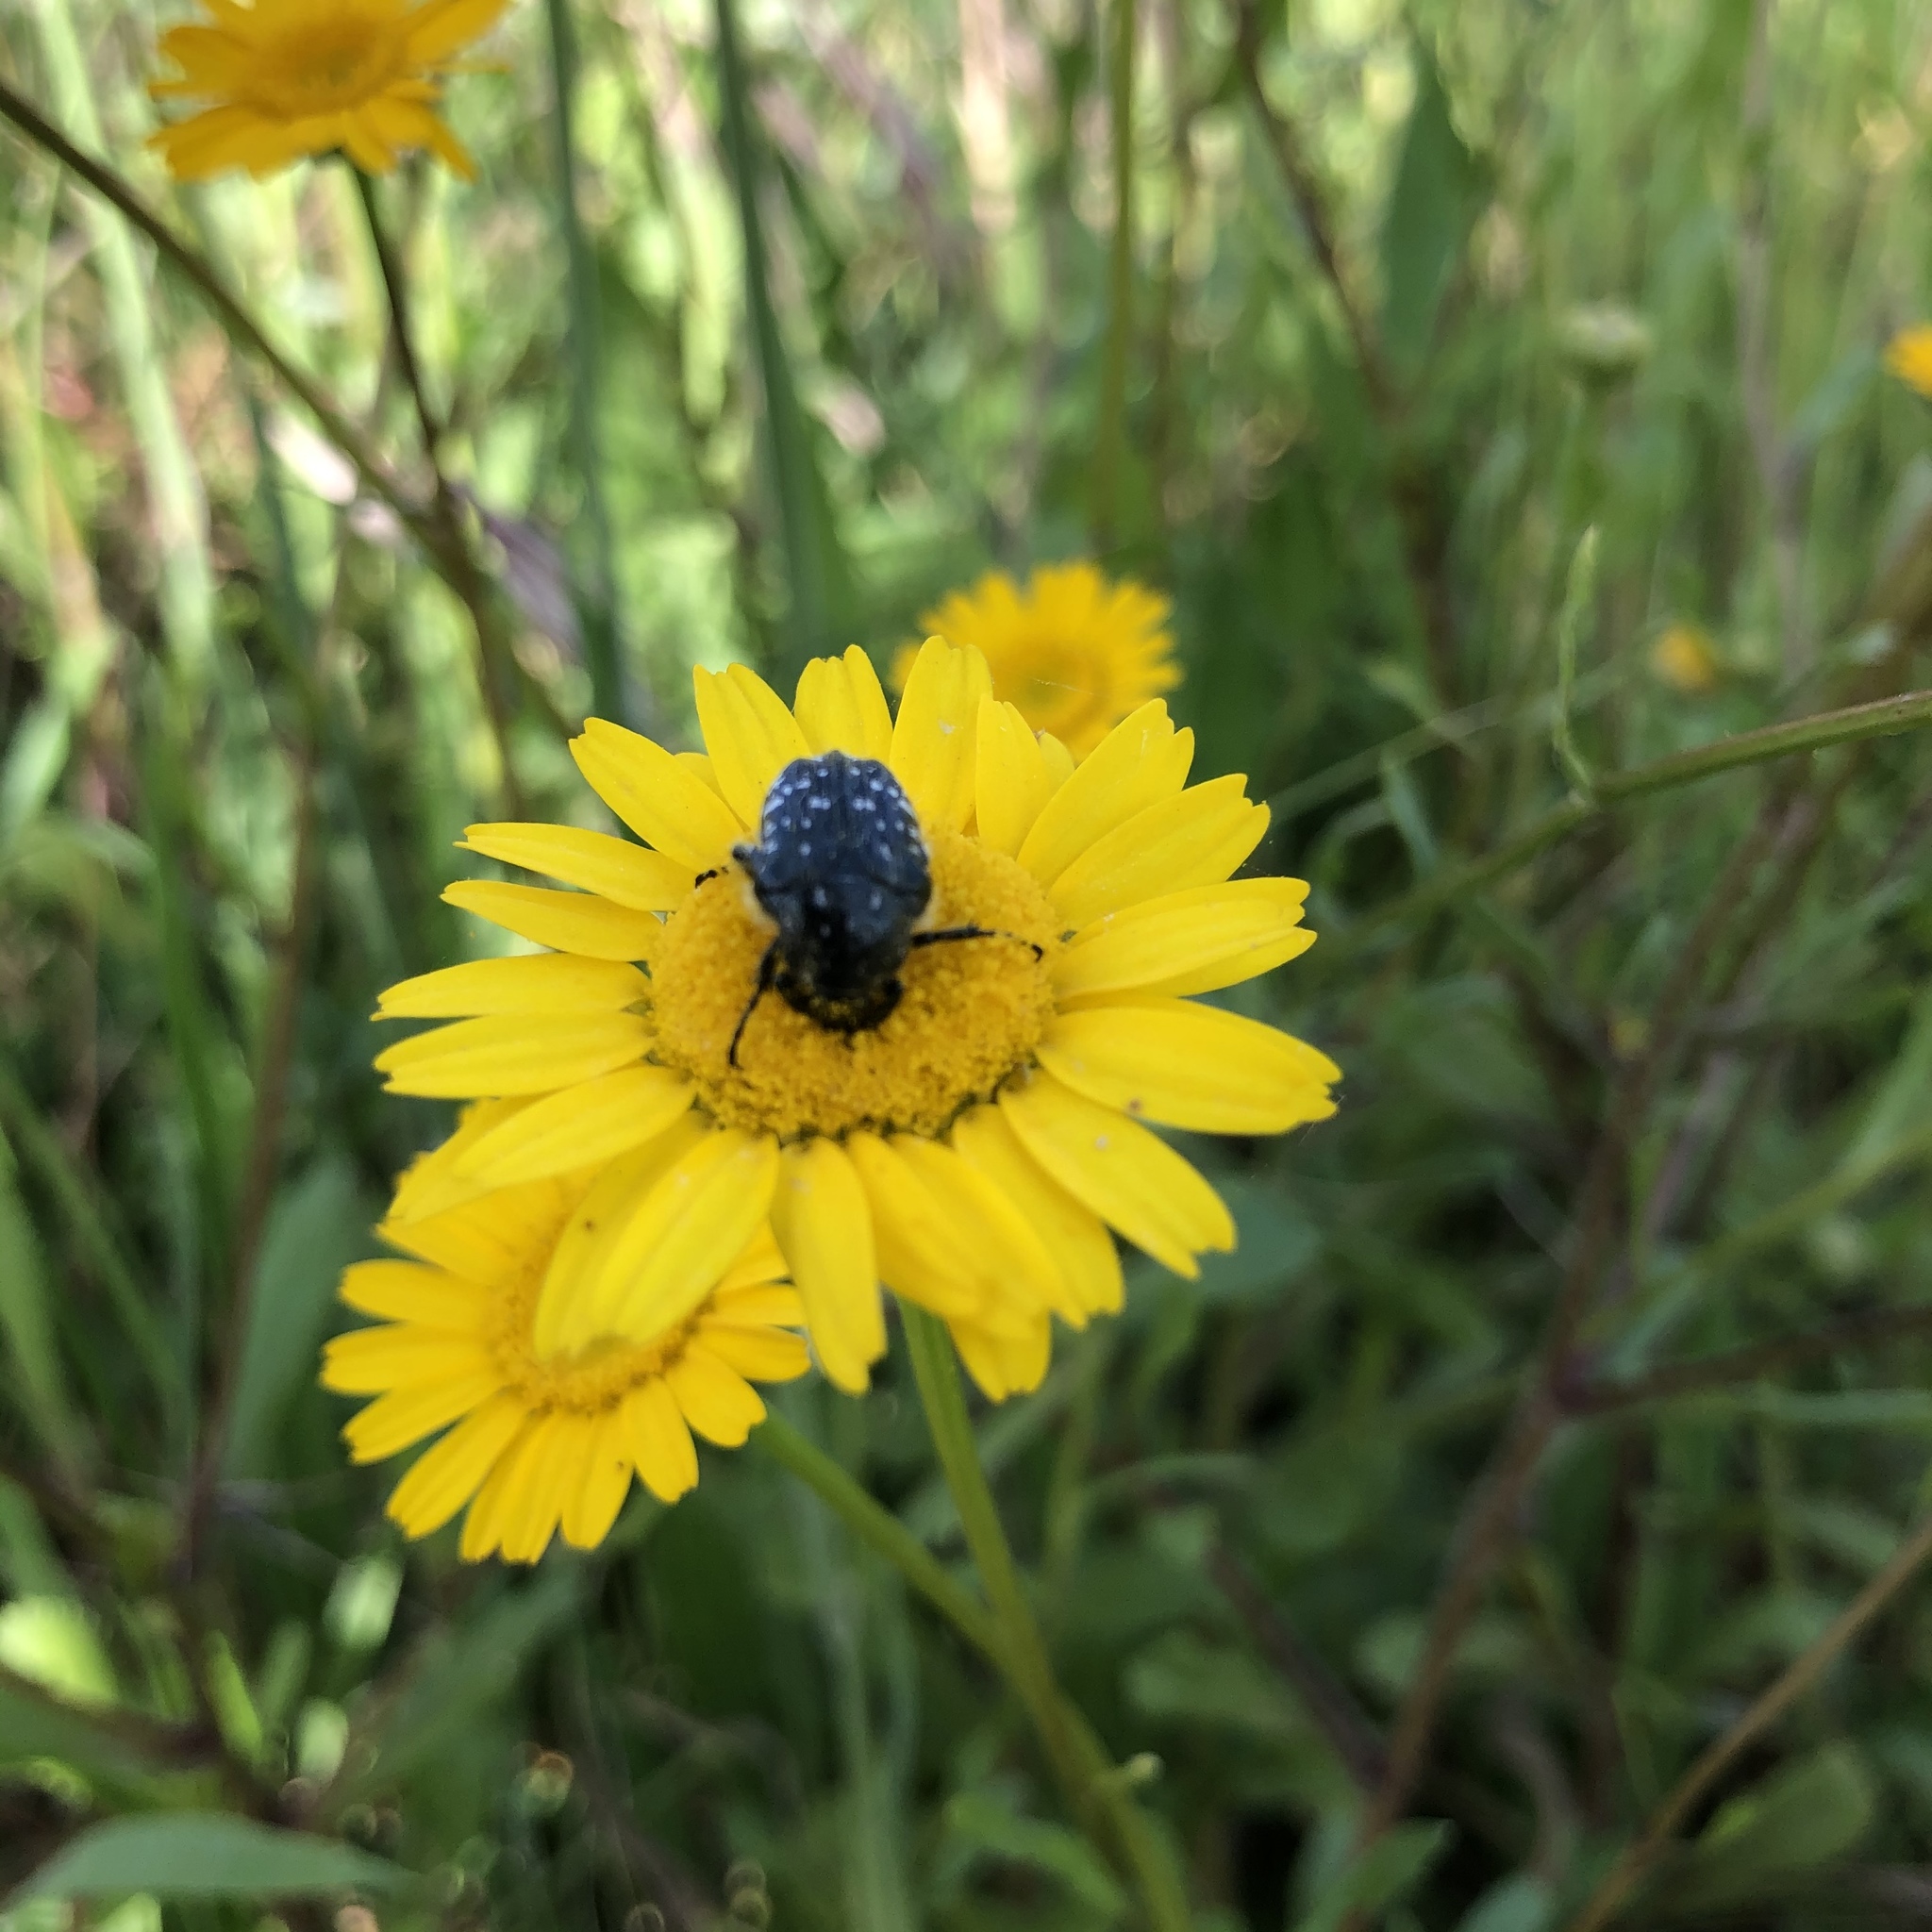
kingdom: Animalia
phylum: Arthropoda
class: Insecta
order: Coleoptera
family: Scarabaeidae
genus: Oxythyrea
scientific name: Oxythyrea funesta
